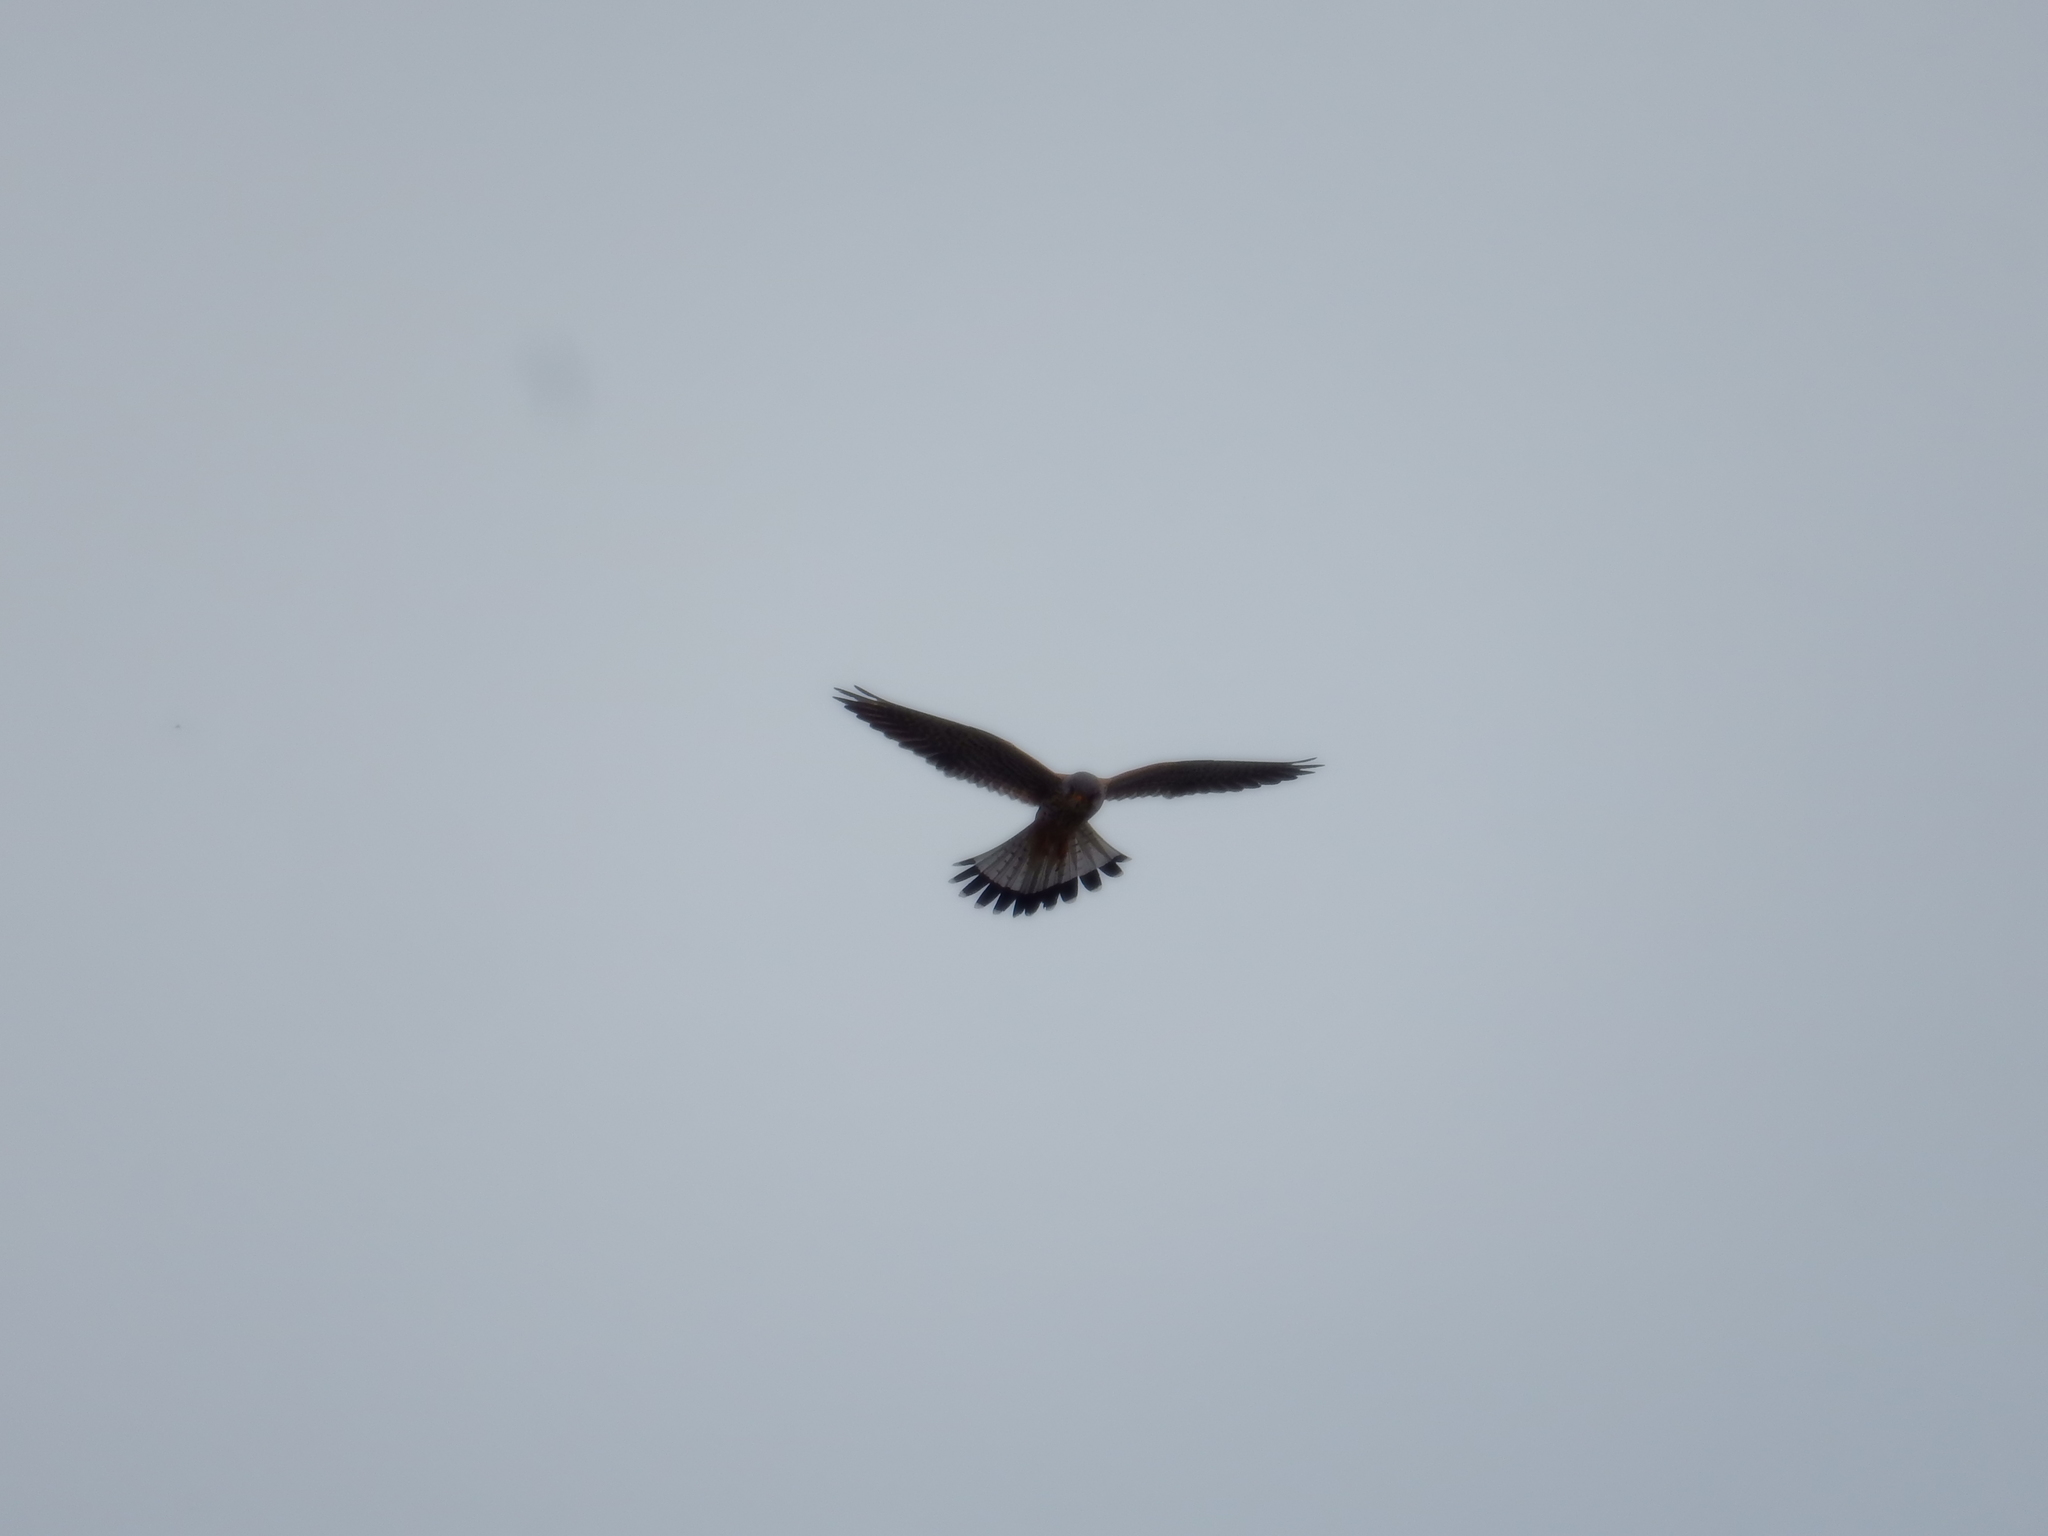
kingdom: Animalia
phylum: Chordata
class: Aves
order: Falconiformes
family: Falconidae
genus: Falco
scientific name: Falco tinnunculus
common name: Common kestrel
